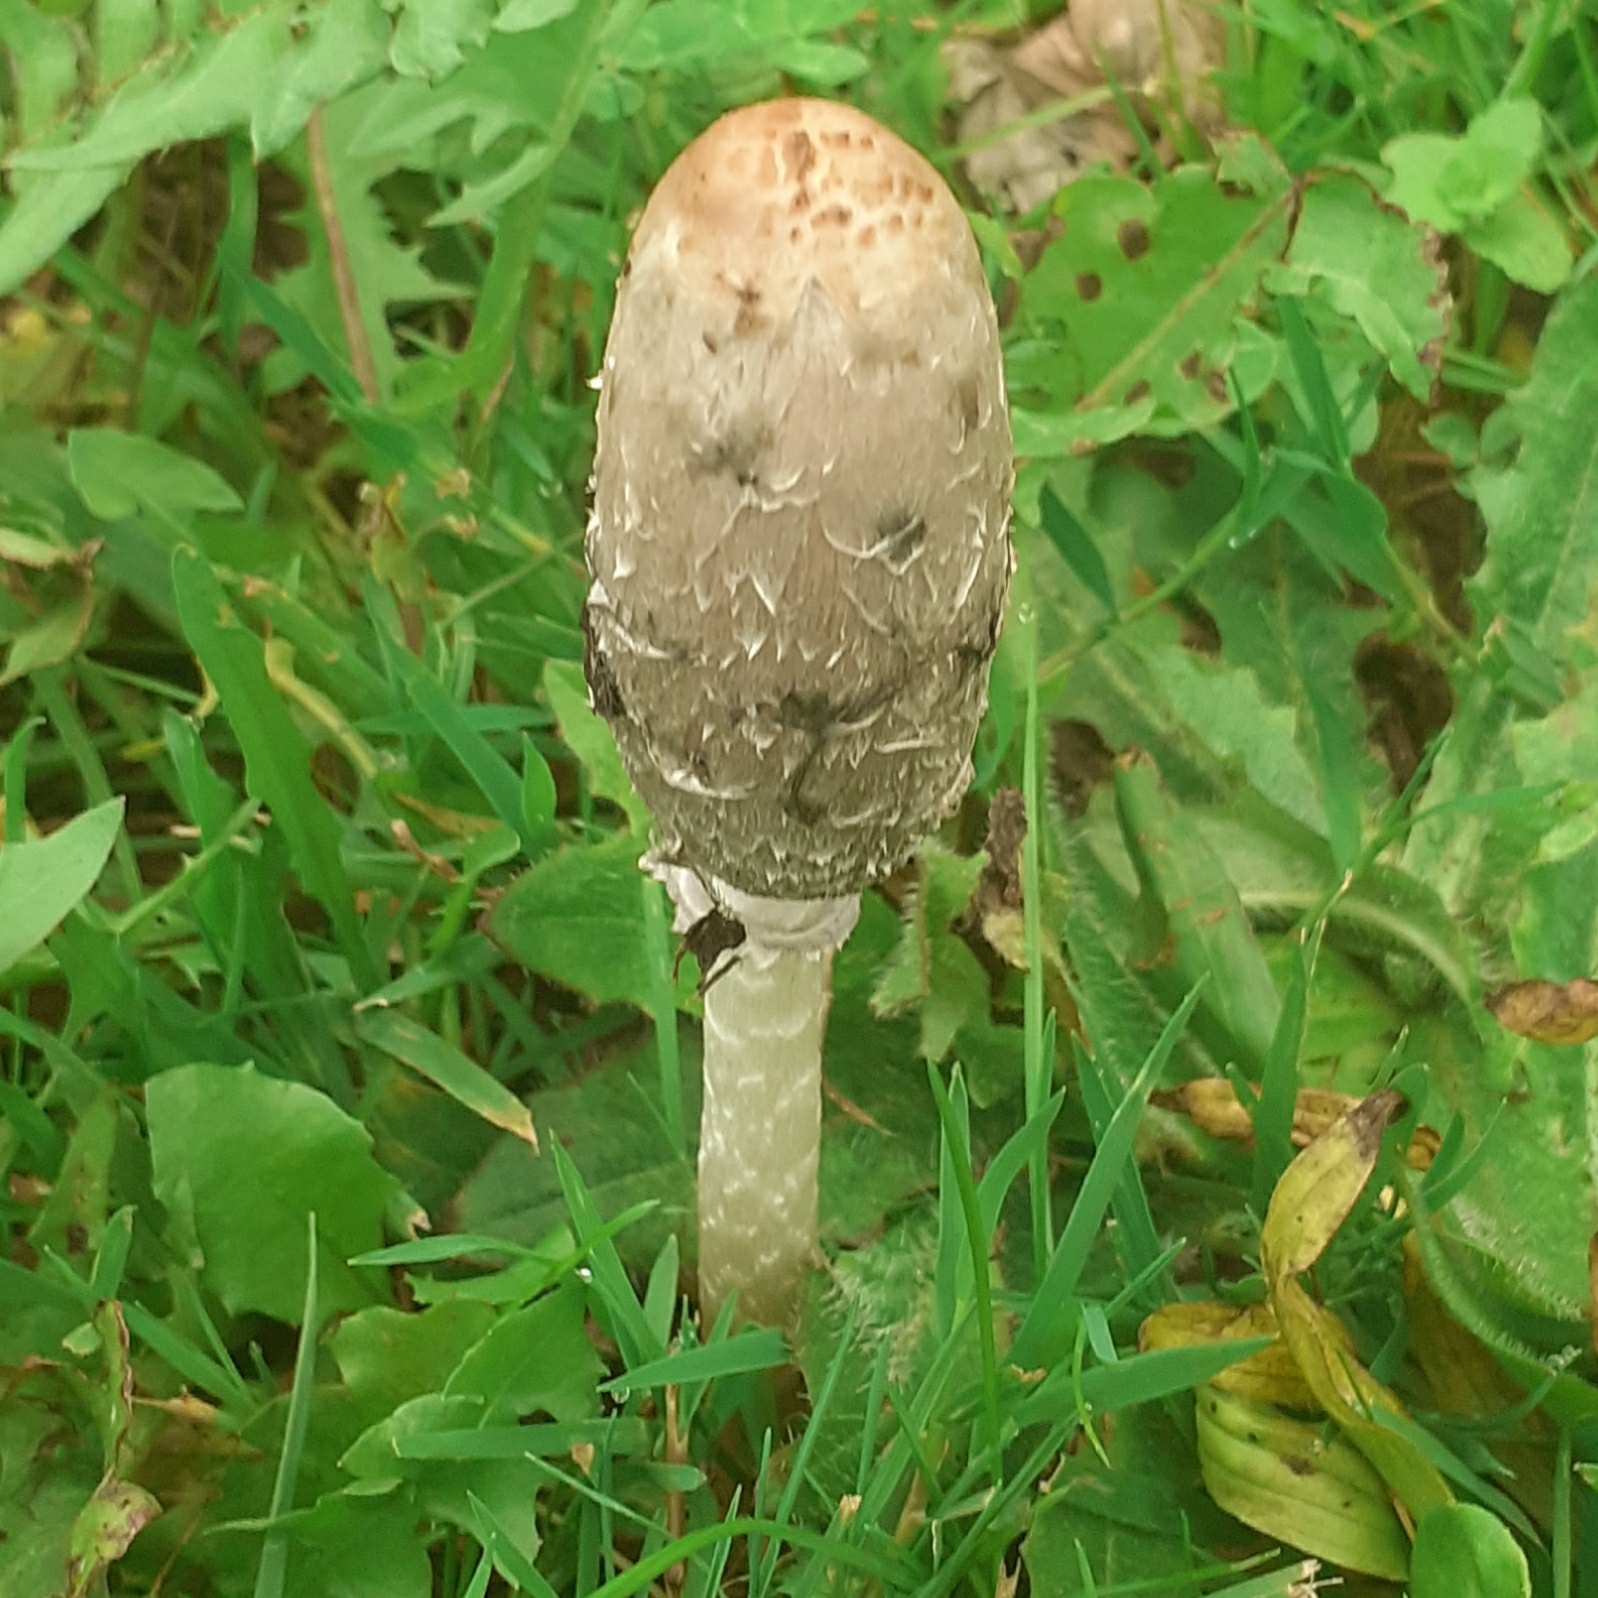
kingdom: Fungi
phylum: Basidiomycota
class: Agaricomycetes
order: Agaricales
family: Agaricaceae
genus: Coprinus
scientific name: Coprinus comatus
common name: Lawyer's wig
